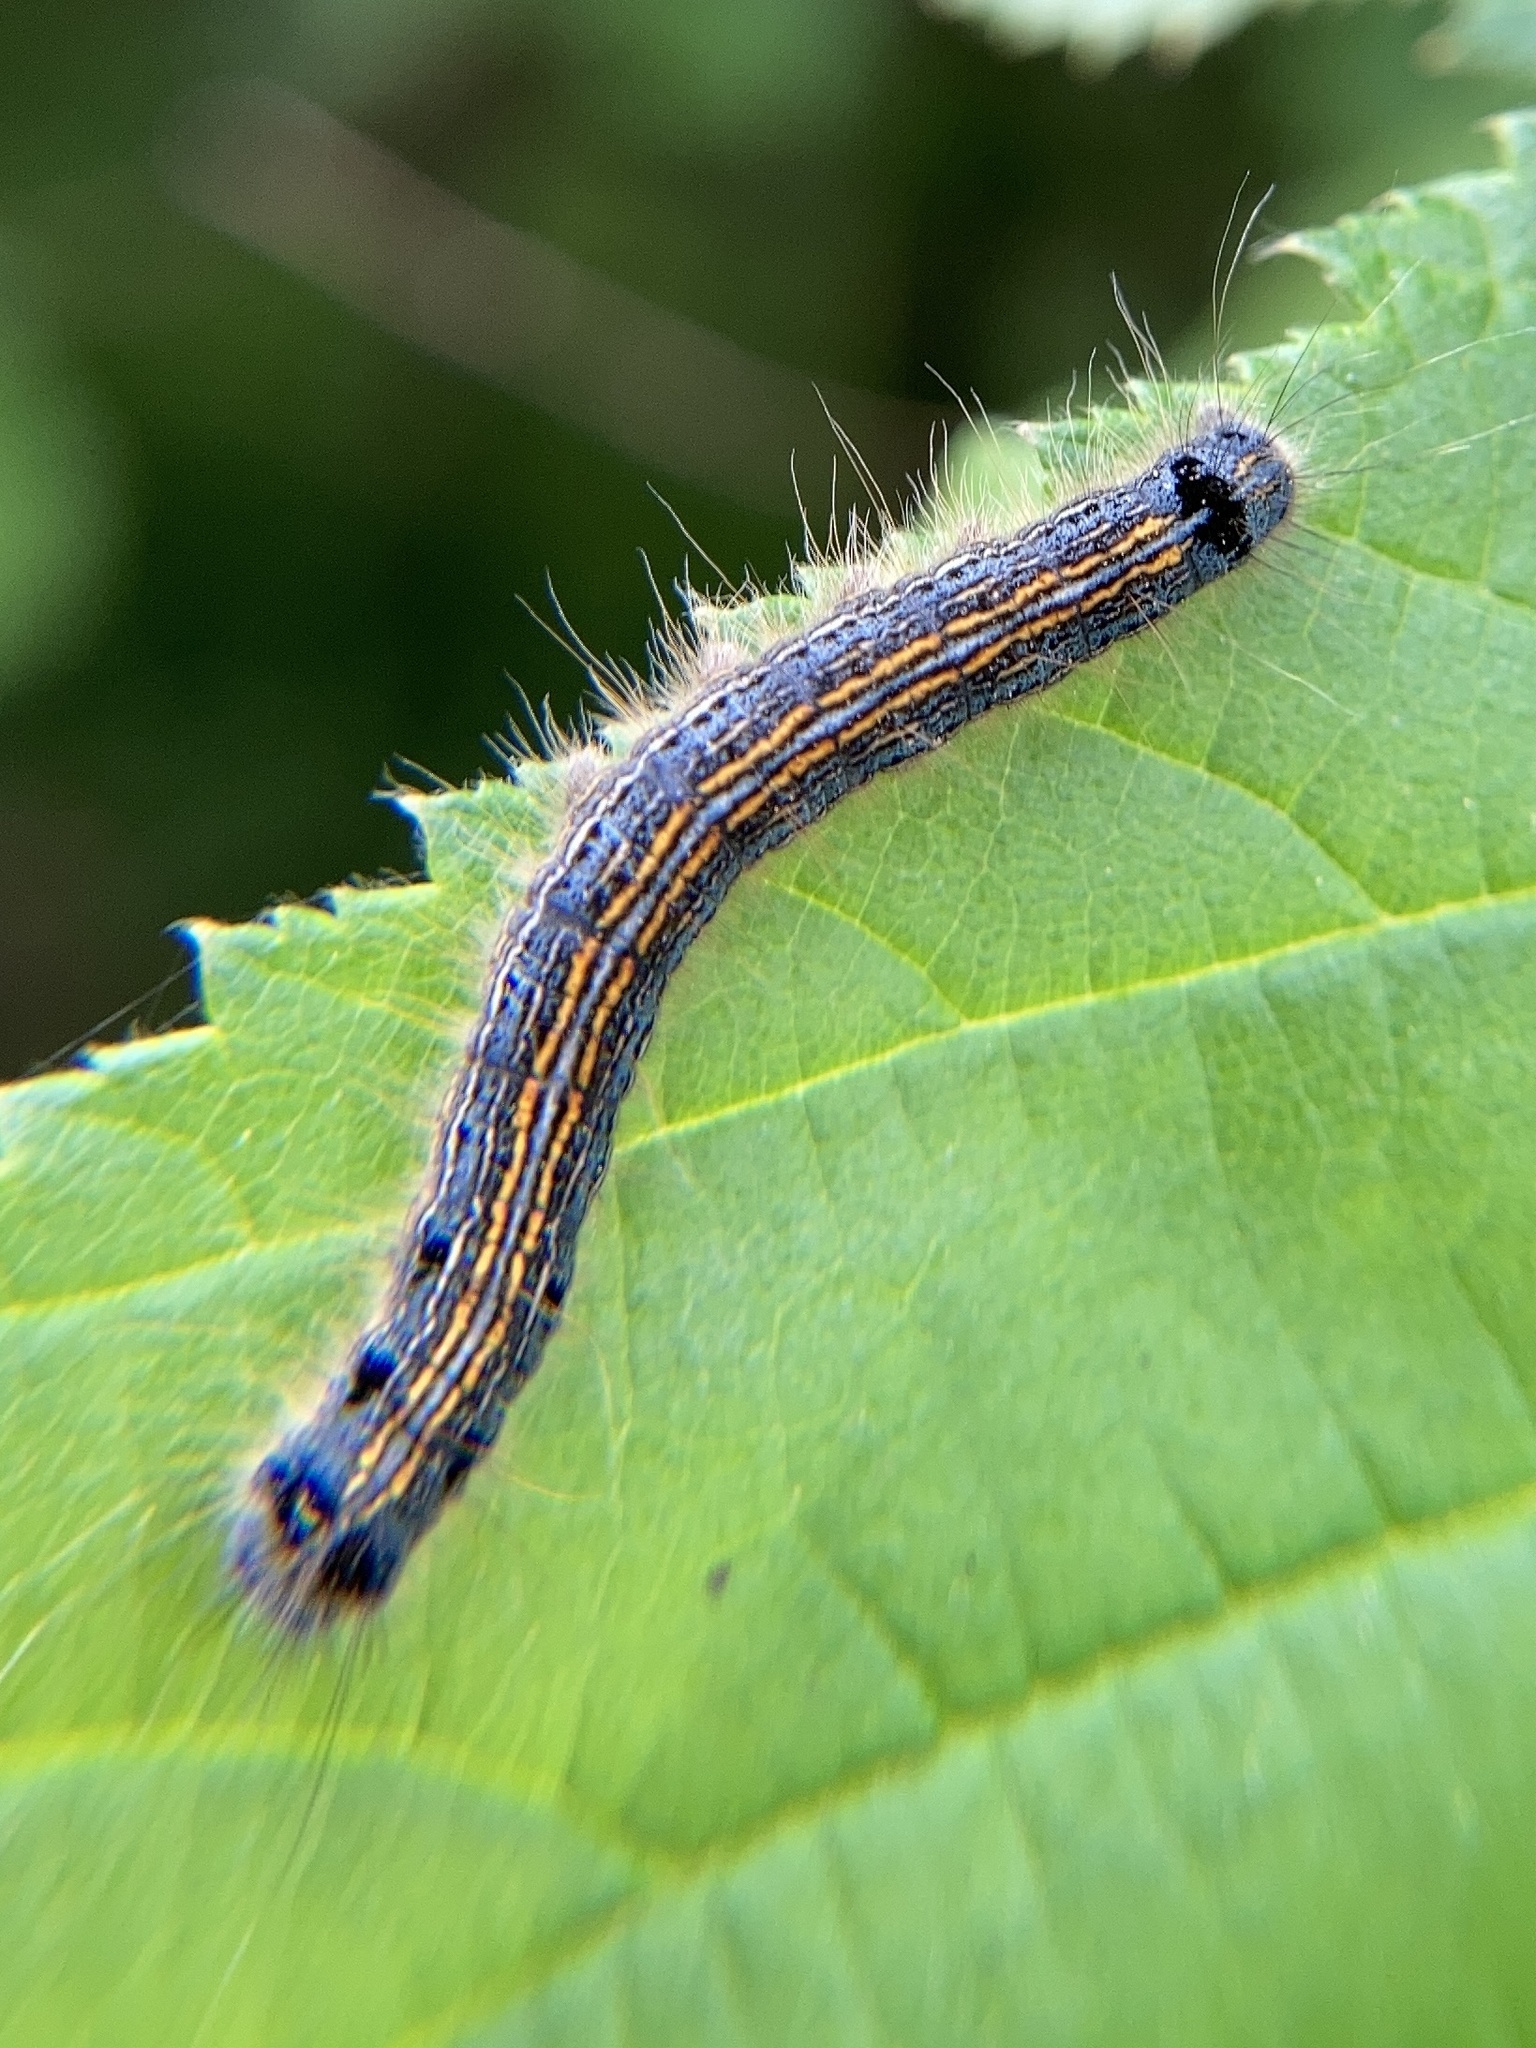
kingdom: Animalia
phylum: Arthropoda
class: Insecta
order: Lepidoptera
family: Lasiocampidae
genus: Malacosoma
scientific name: Malacosoma neustria
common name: The lackey
